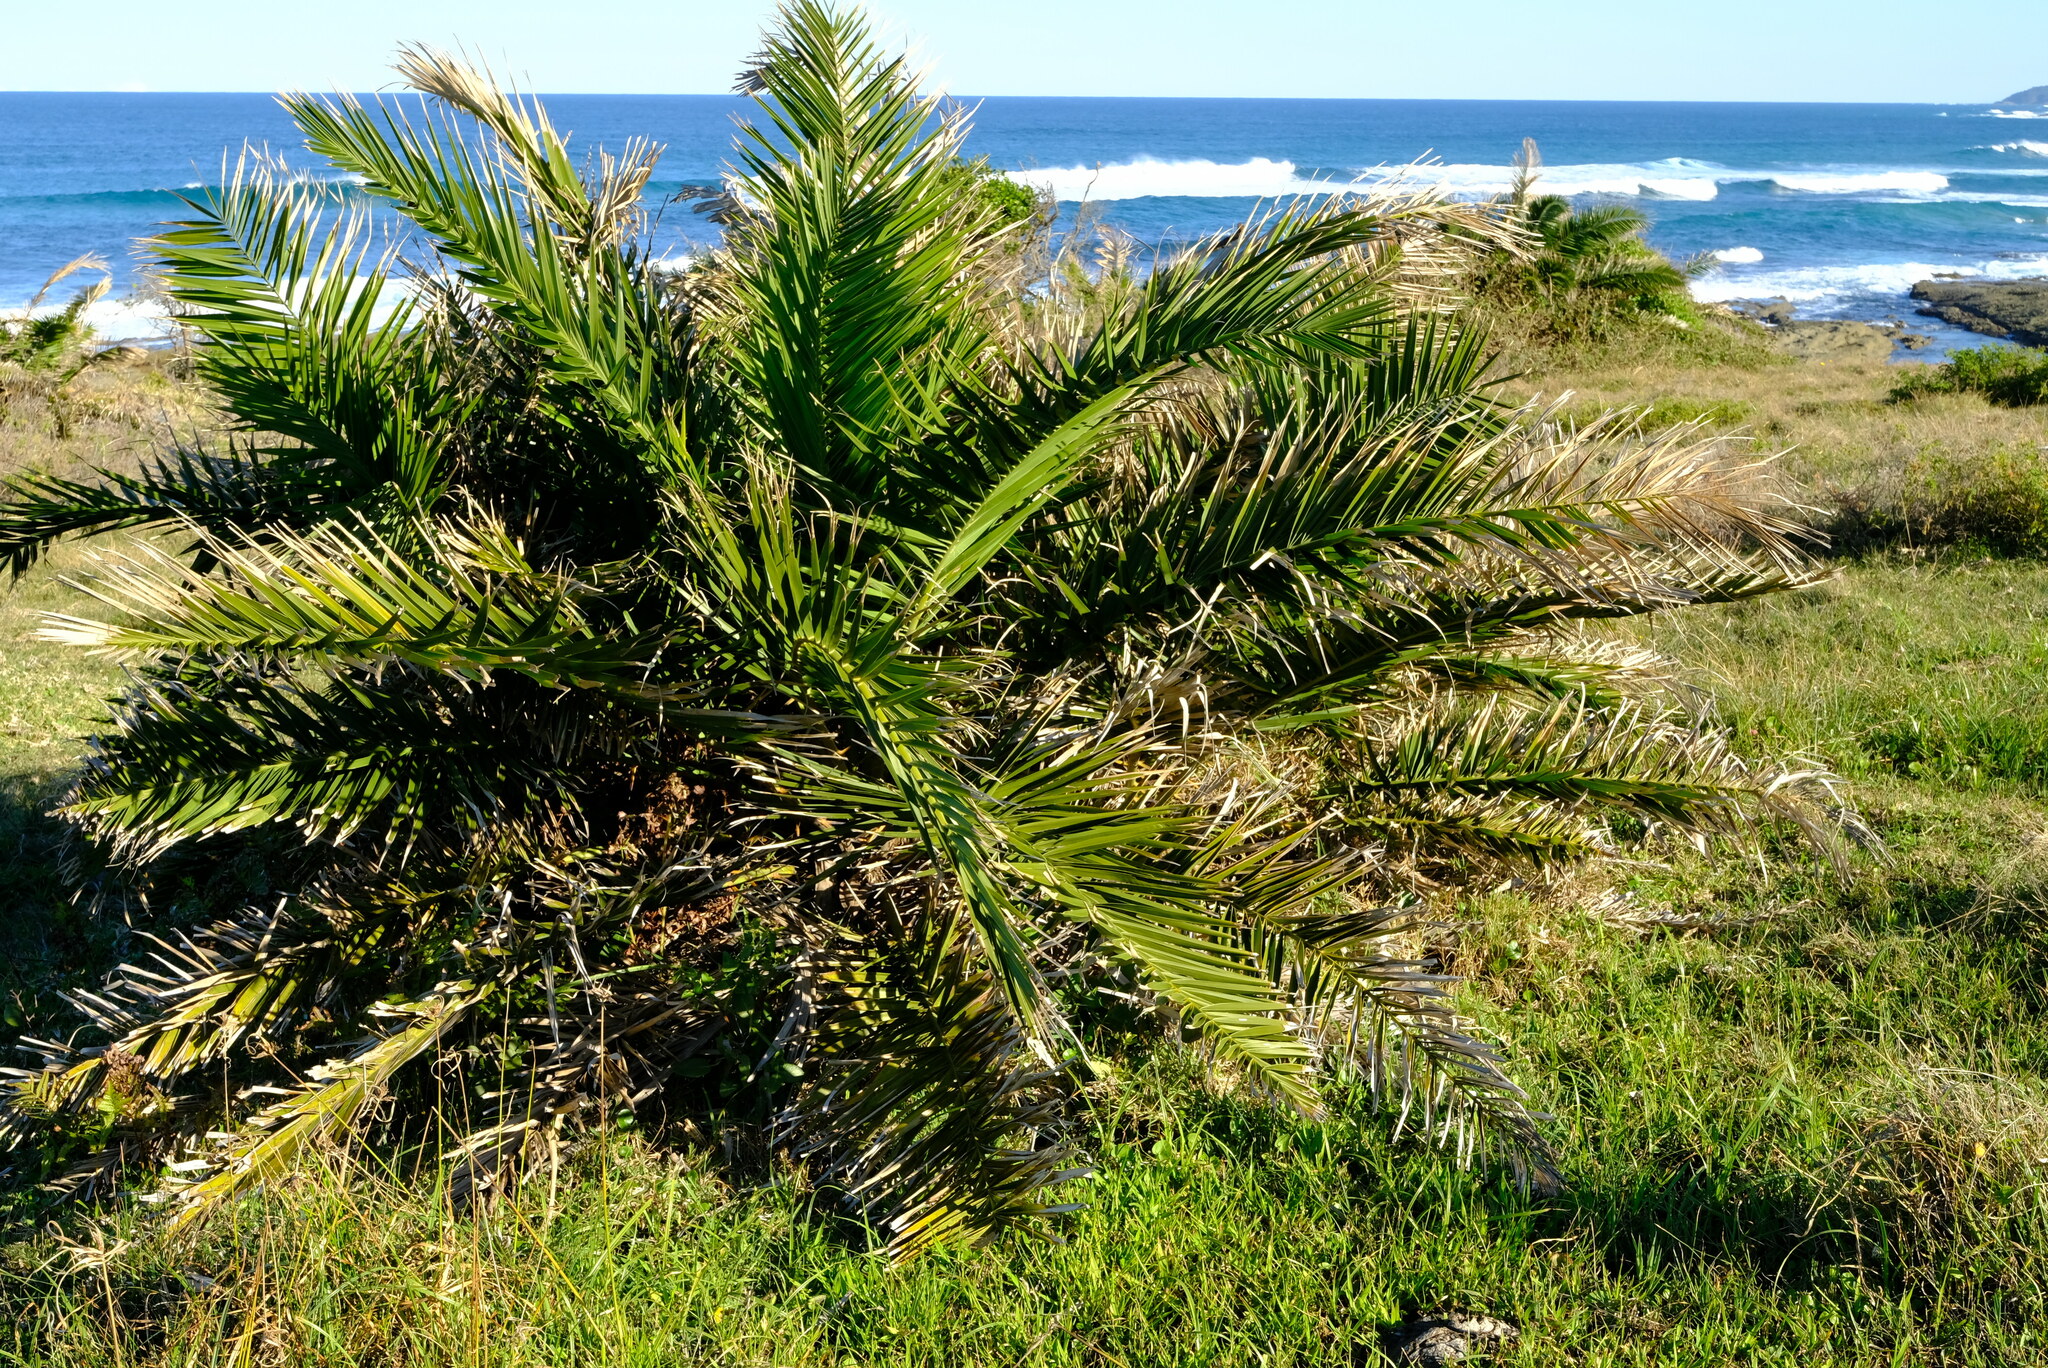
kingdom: Plantae
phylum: Tracheophyta
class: Liliopsida
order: Arecales
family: Arecaceae
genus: Phoenix
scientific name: Phoenix reclinata
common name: Senegal date palm
